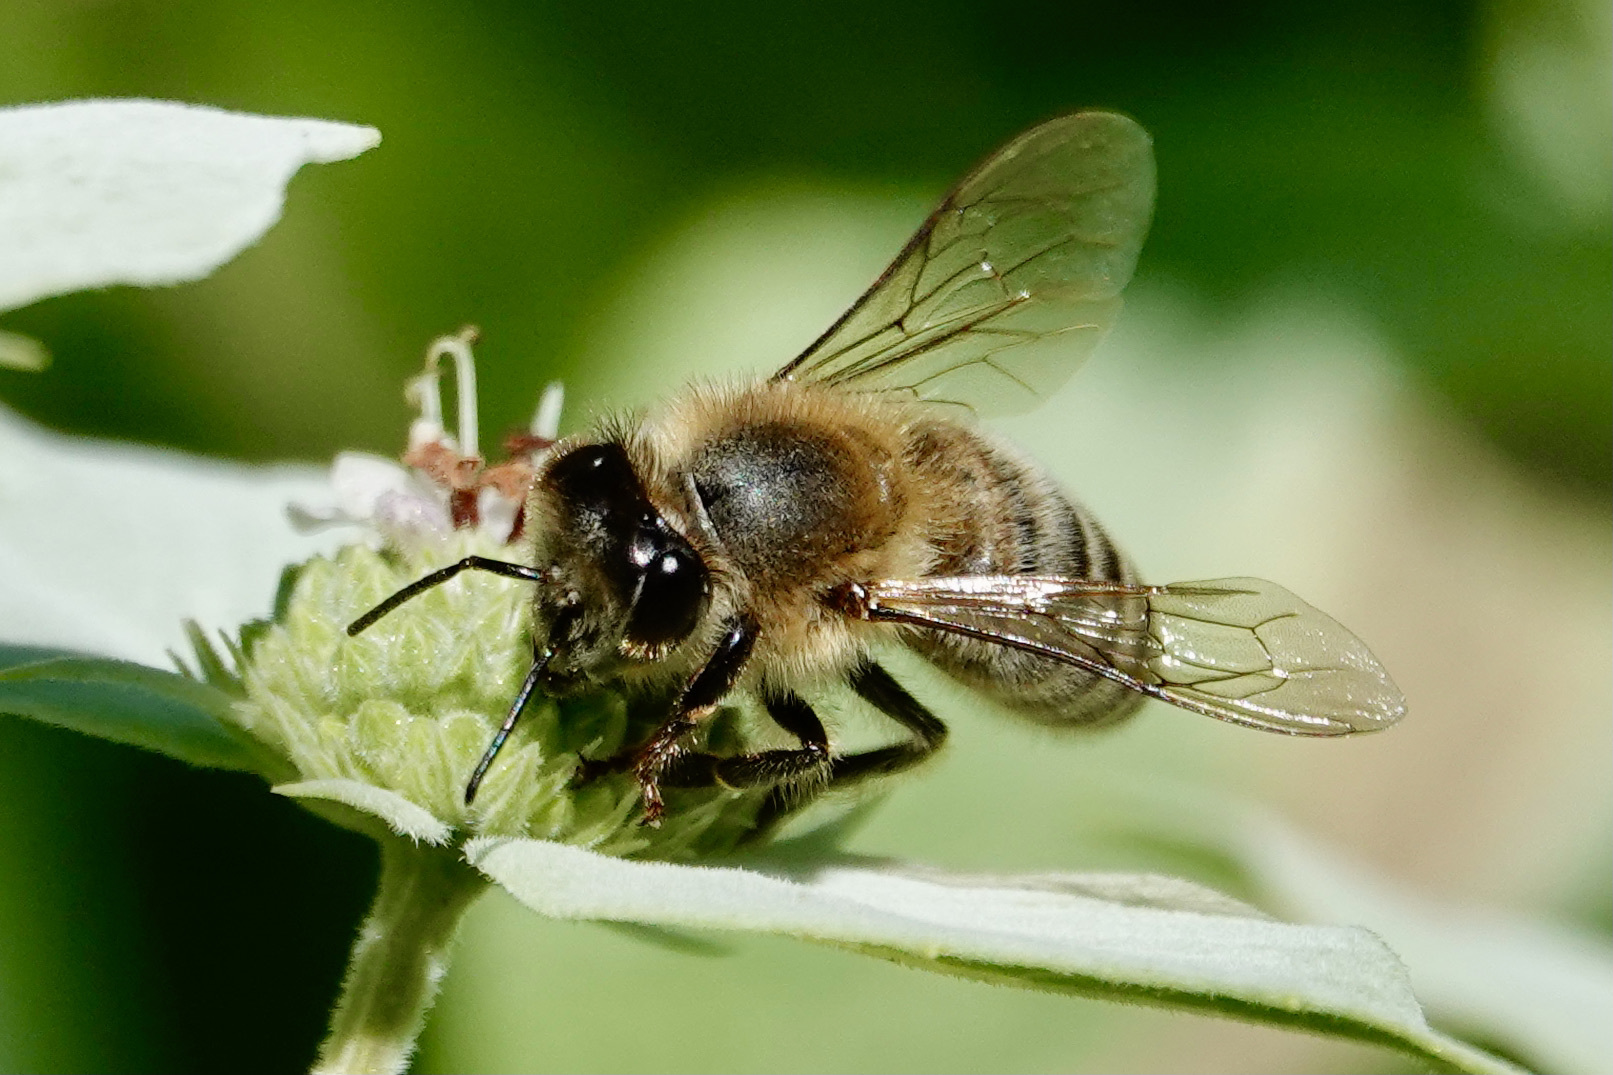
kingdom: Animalia
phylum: Arthropoda
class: Insecta
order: Hymenoptera
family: Apidae
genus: Apis
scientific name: Apis mellifera
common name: Honey bee
